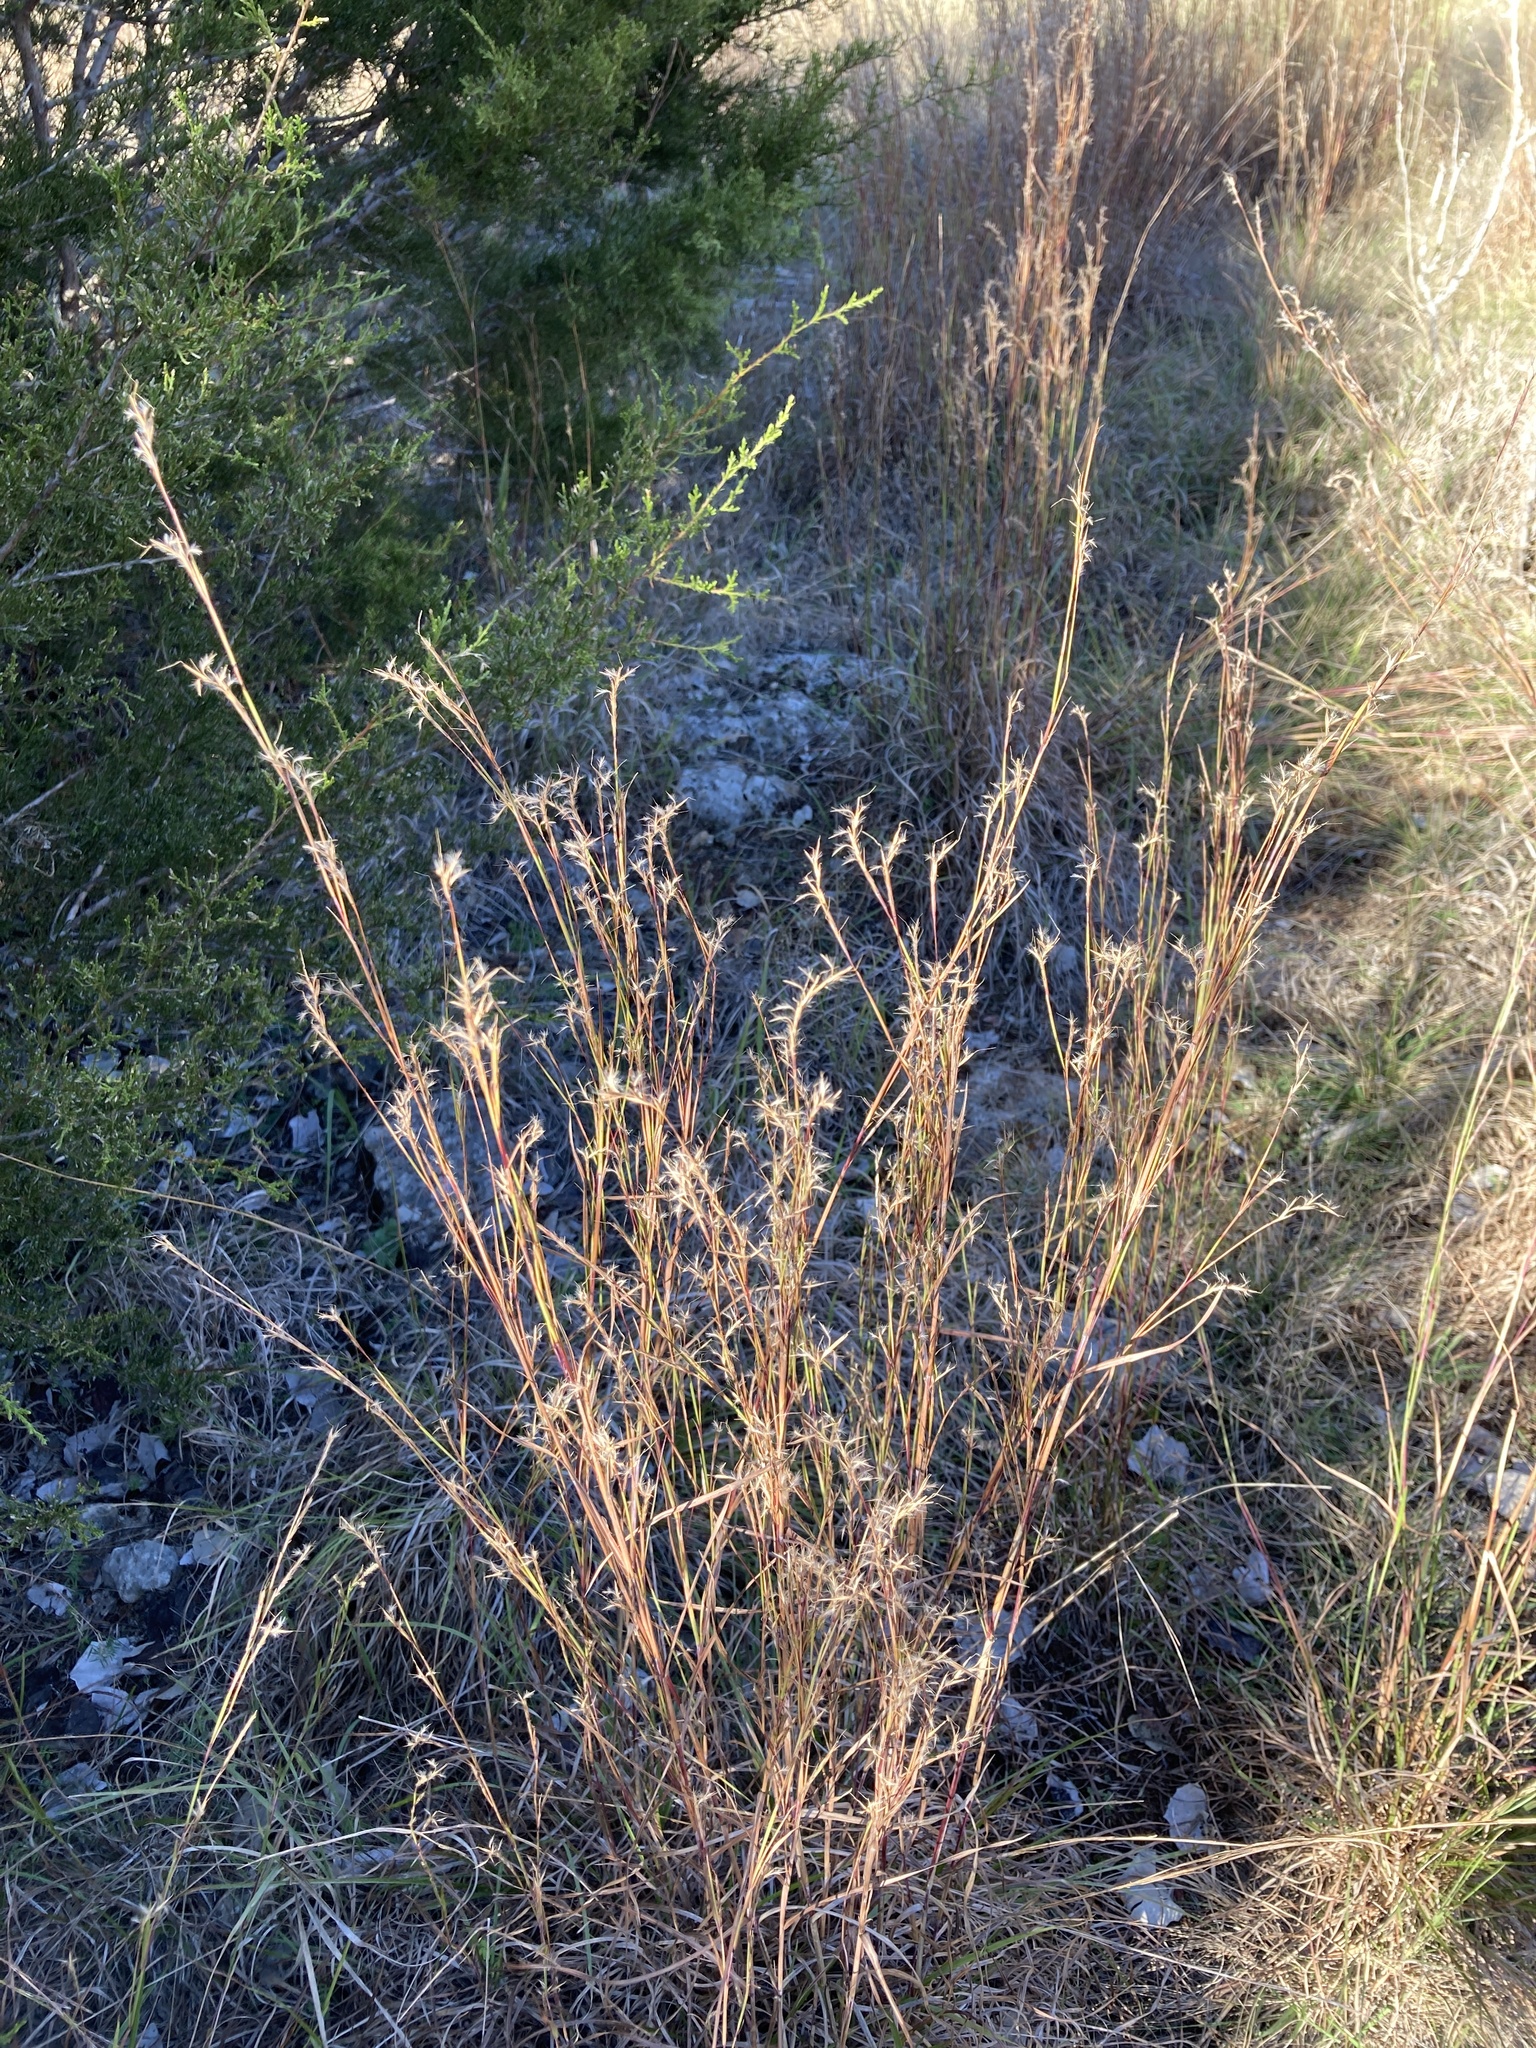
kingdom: Plantae
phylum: Tracheophyta
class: Liliopsida
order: Poales
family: Poaceae
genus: Schizachyrium
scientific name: Schizachyrium scoparium
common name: Little bluestem
